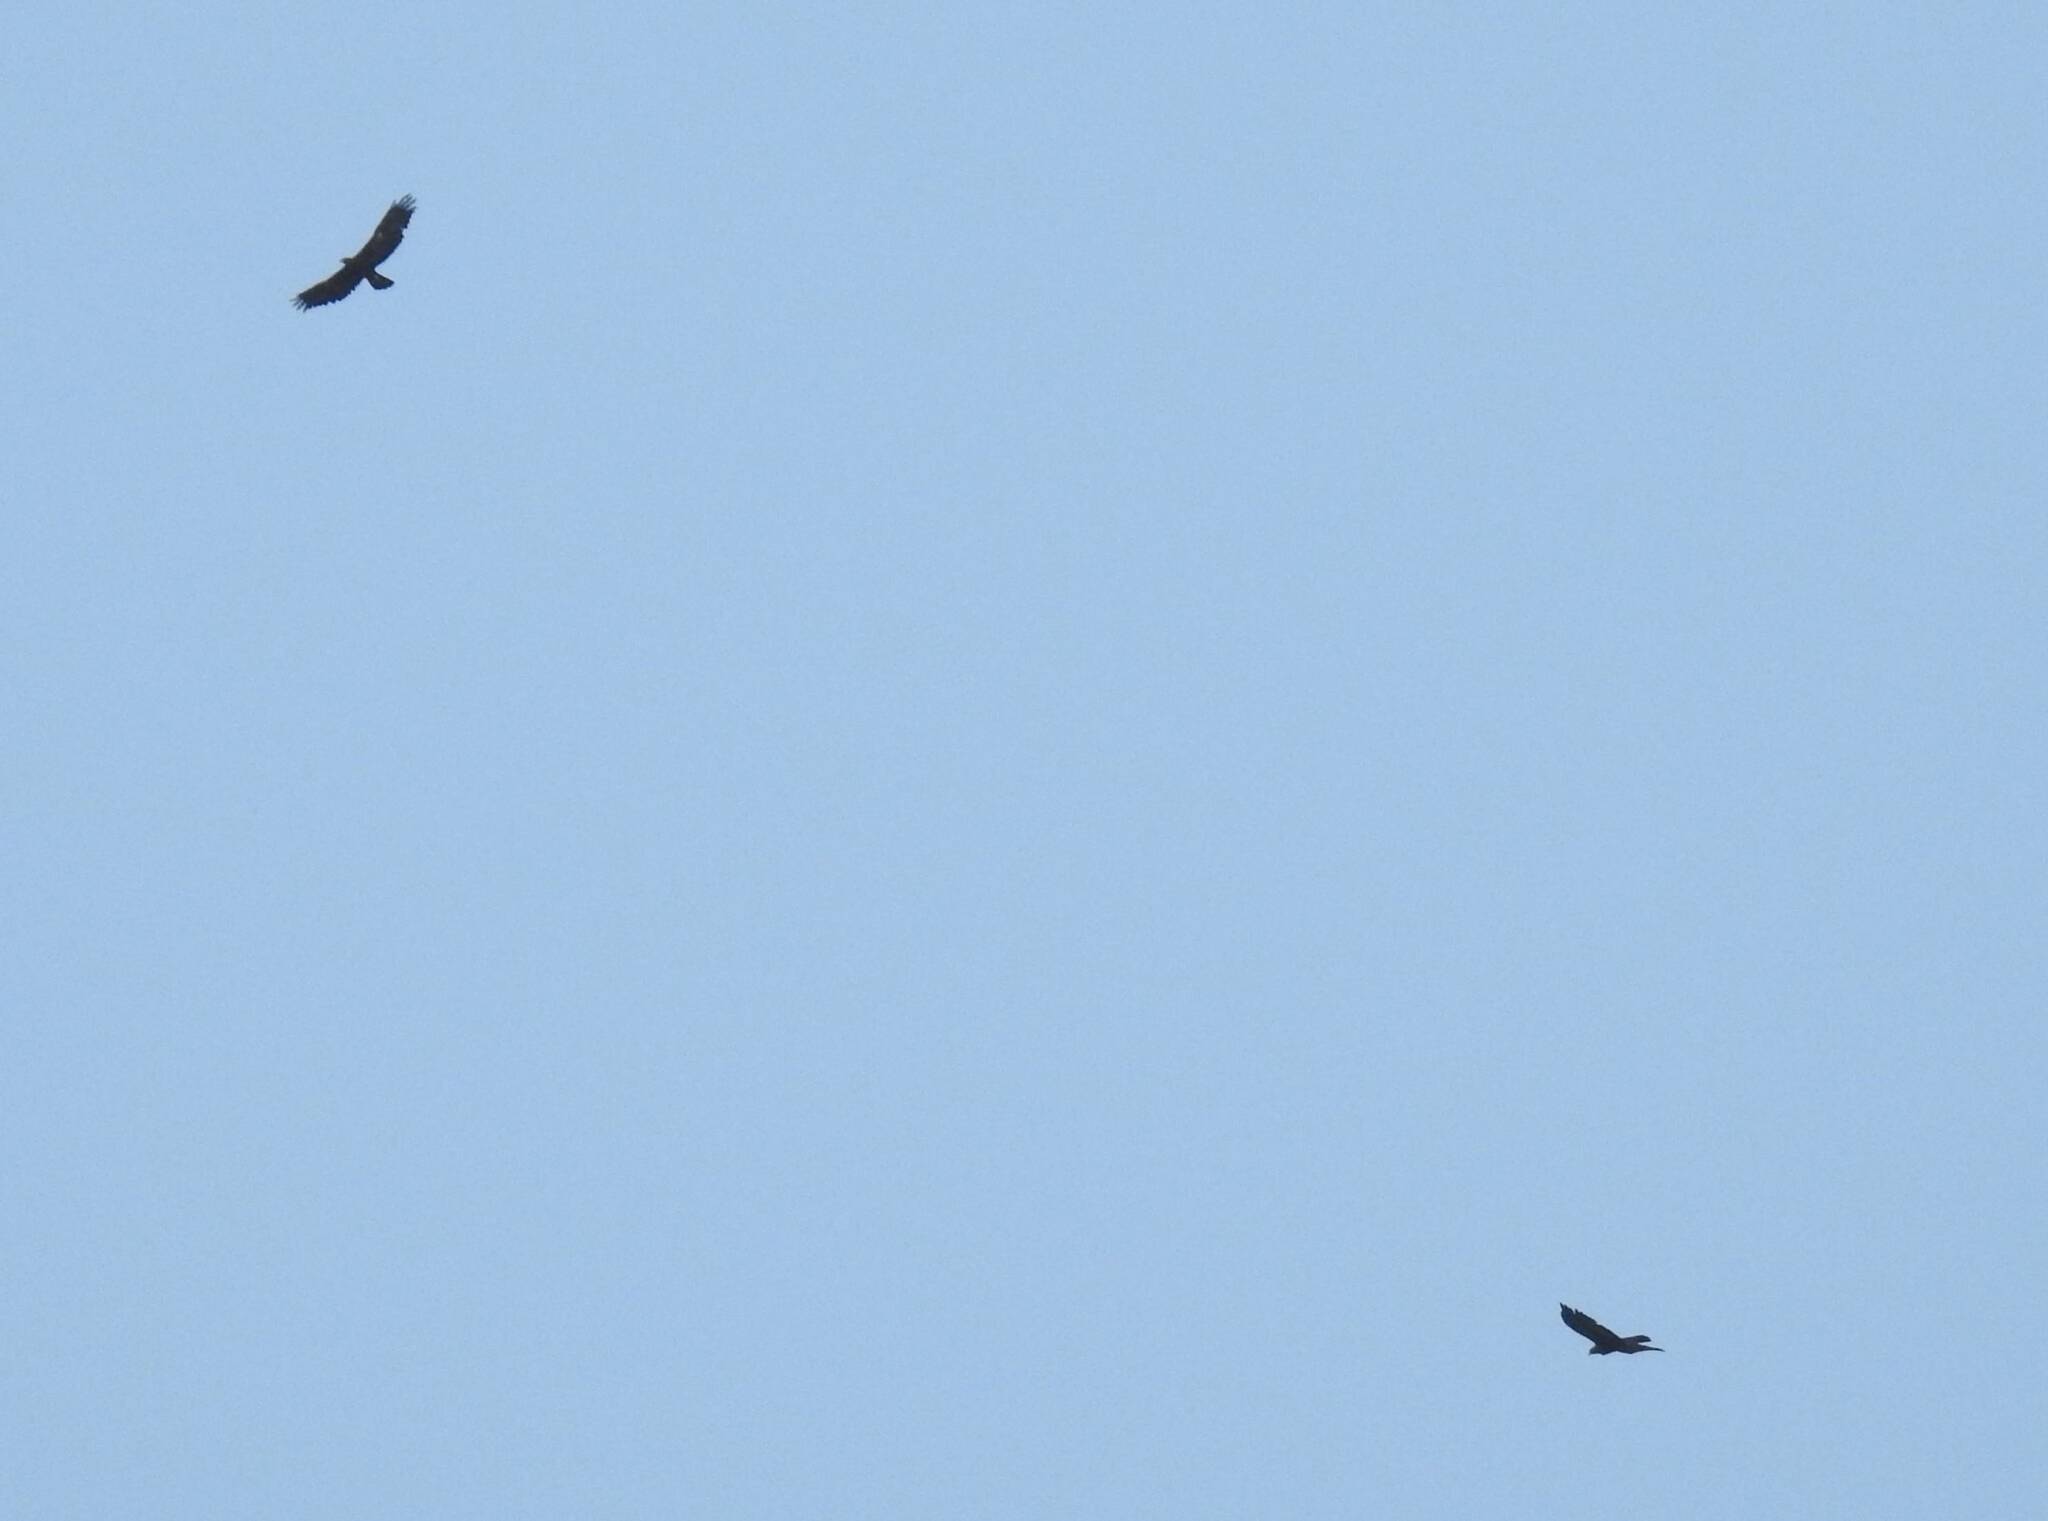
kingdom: Animalia
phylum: Chordata
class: Aves
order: Accipitriformes
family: Accipitridae
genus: Aquila
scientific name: Aquila chrysaetos
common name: Golden eagle
